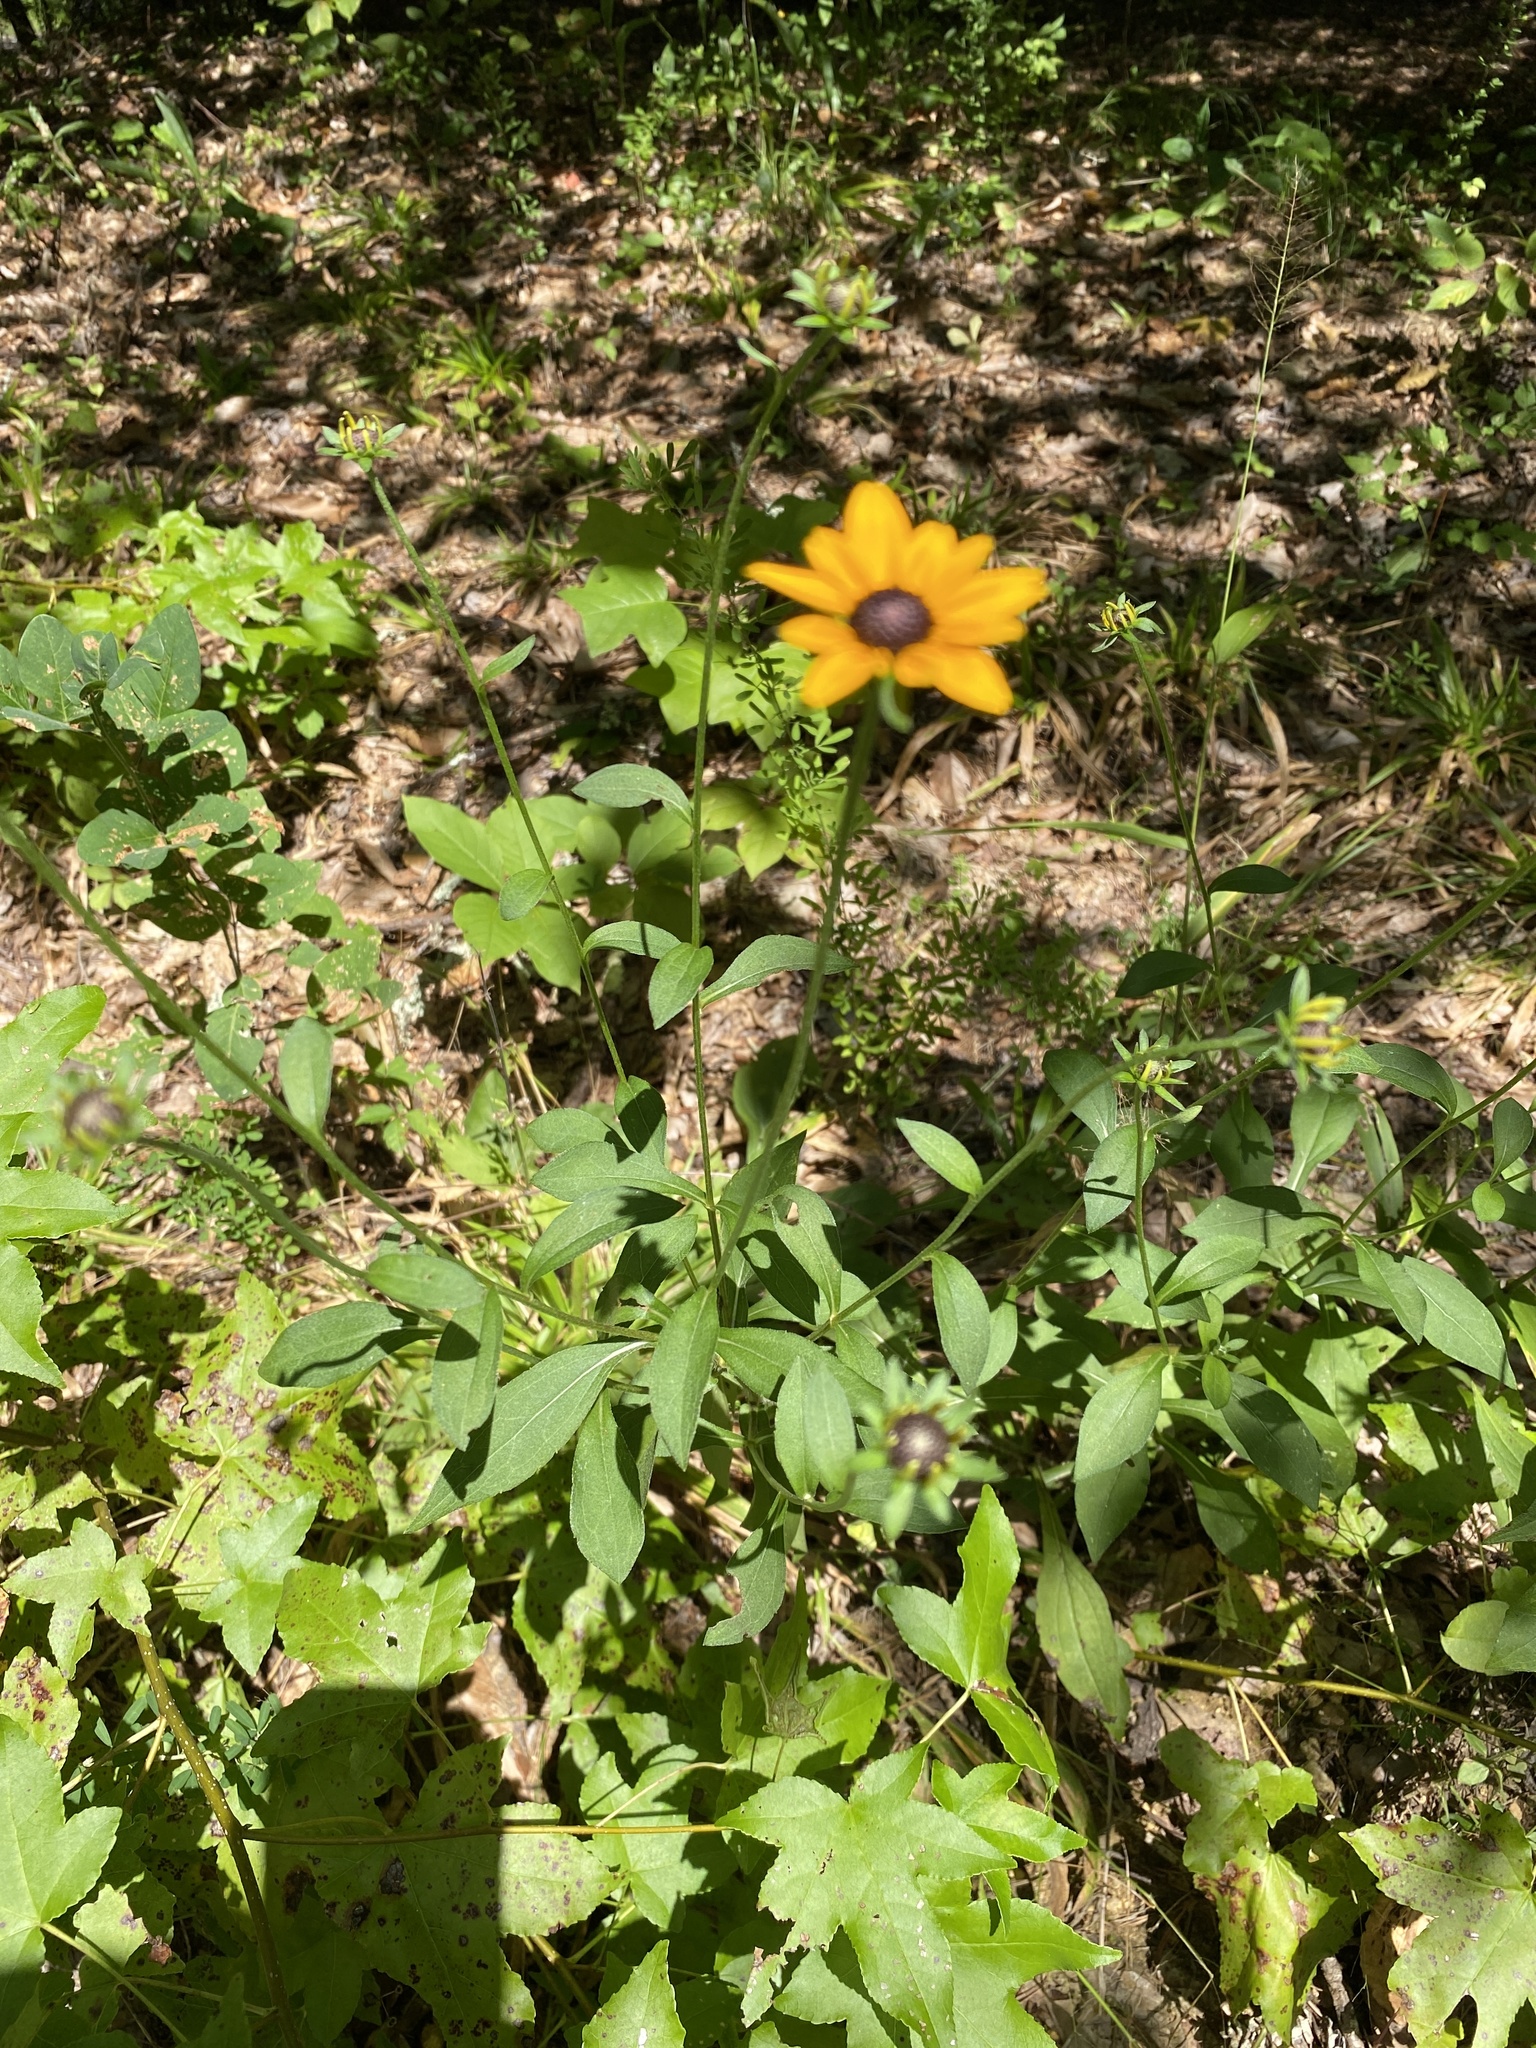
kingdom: Plantae
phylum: Tracheophyta
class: Magnoliopsida
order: Asterales
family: Asteraceae
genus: Rudbeckia
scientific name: Rudbeckia hirta
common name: Black-eyed-susan
